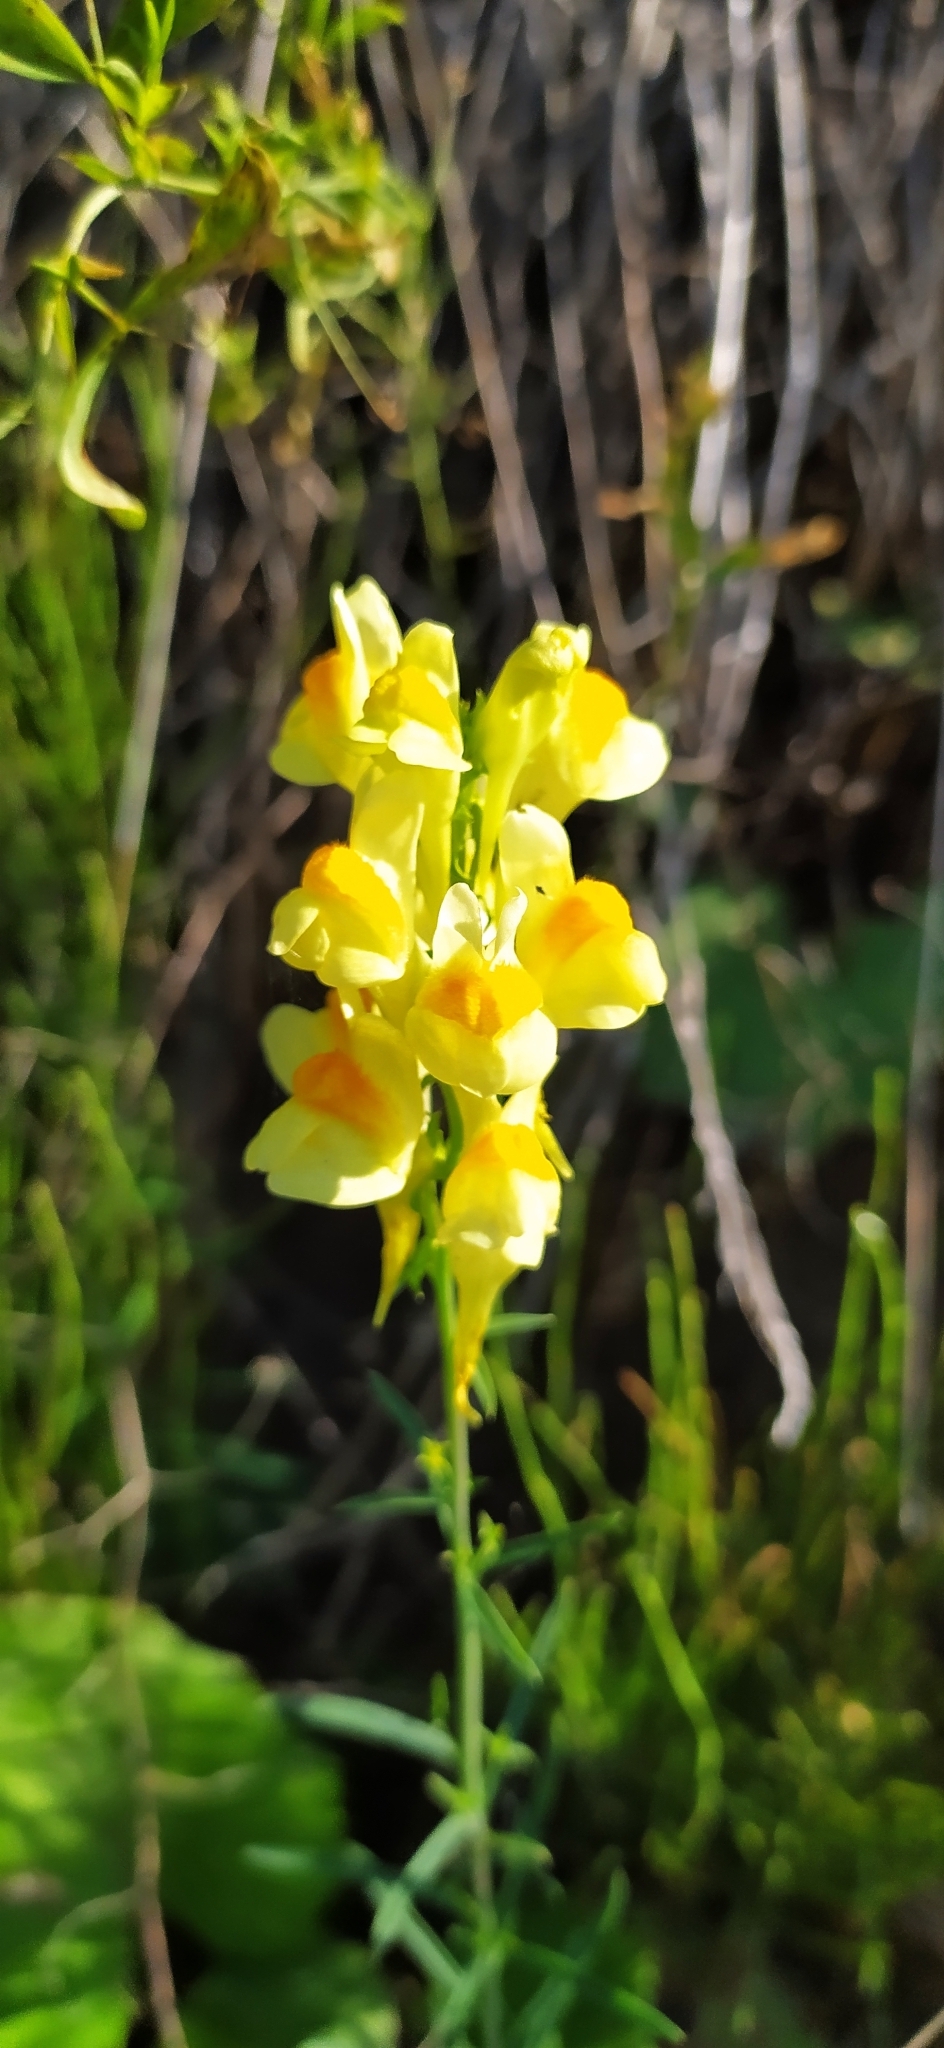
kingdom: Plantae
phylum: Tracheophyta
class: Magnoliopsida
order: Lamiales
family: Plantaginaceae
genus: Linaria
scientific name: Linaria vulgaris
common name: Butter and eggs
